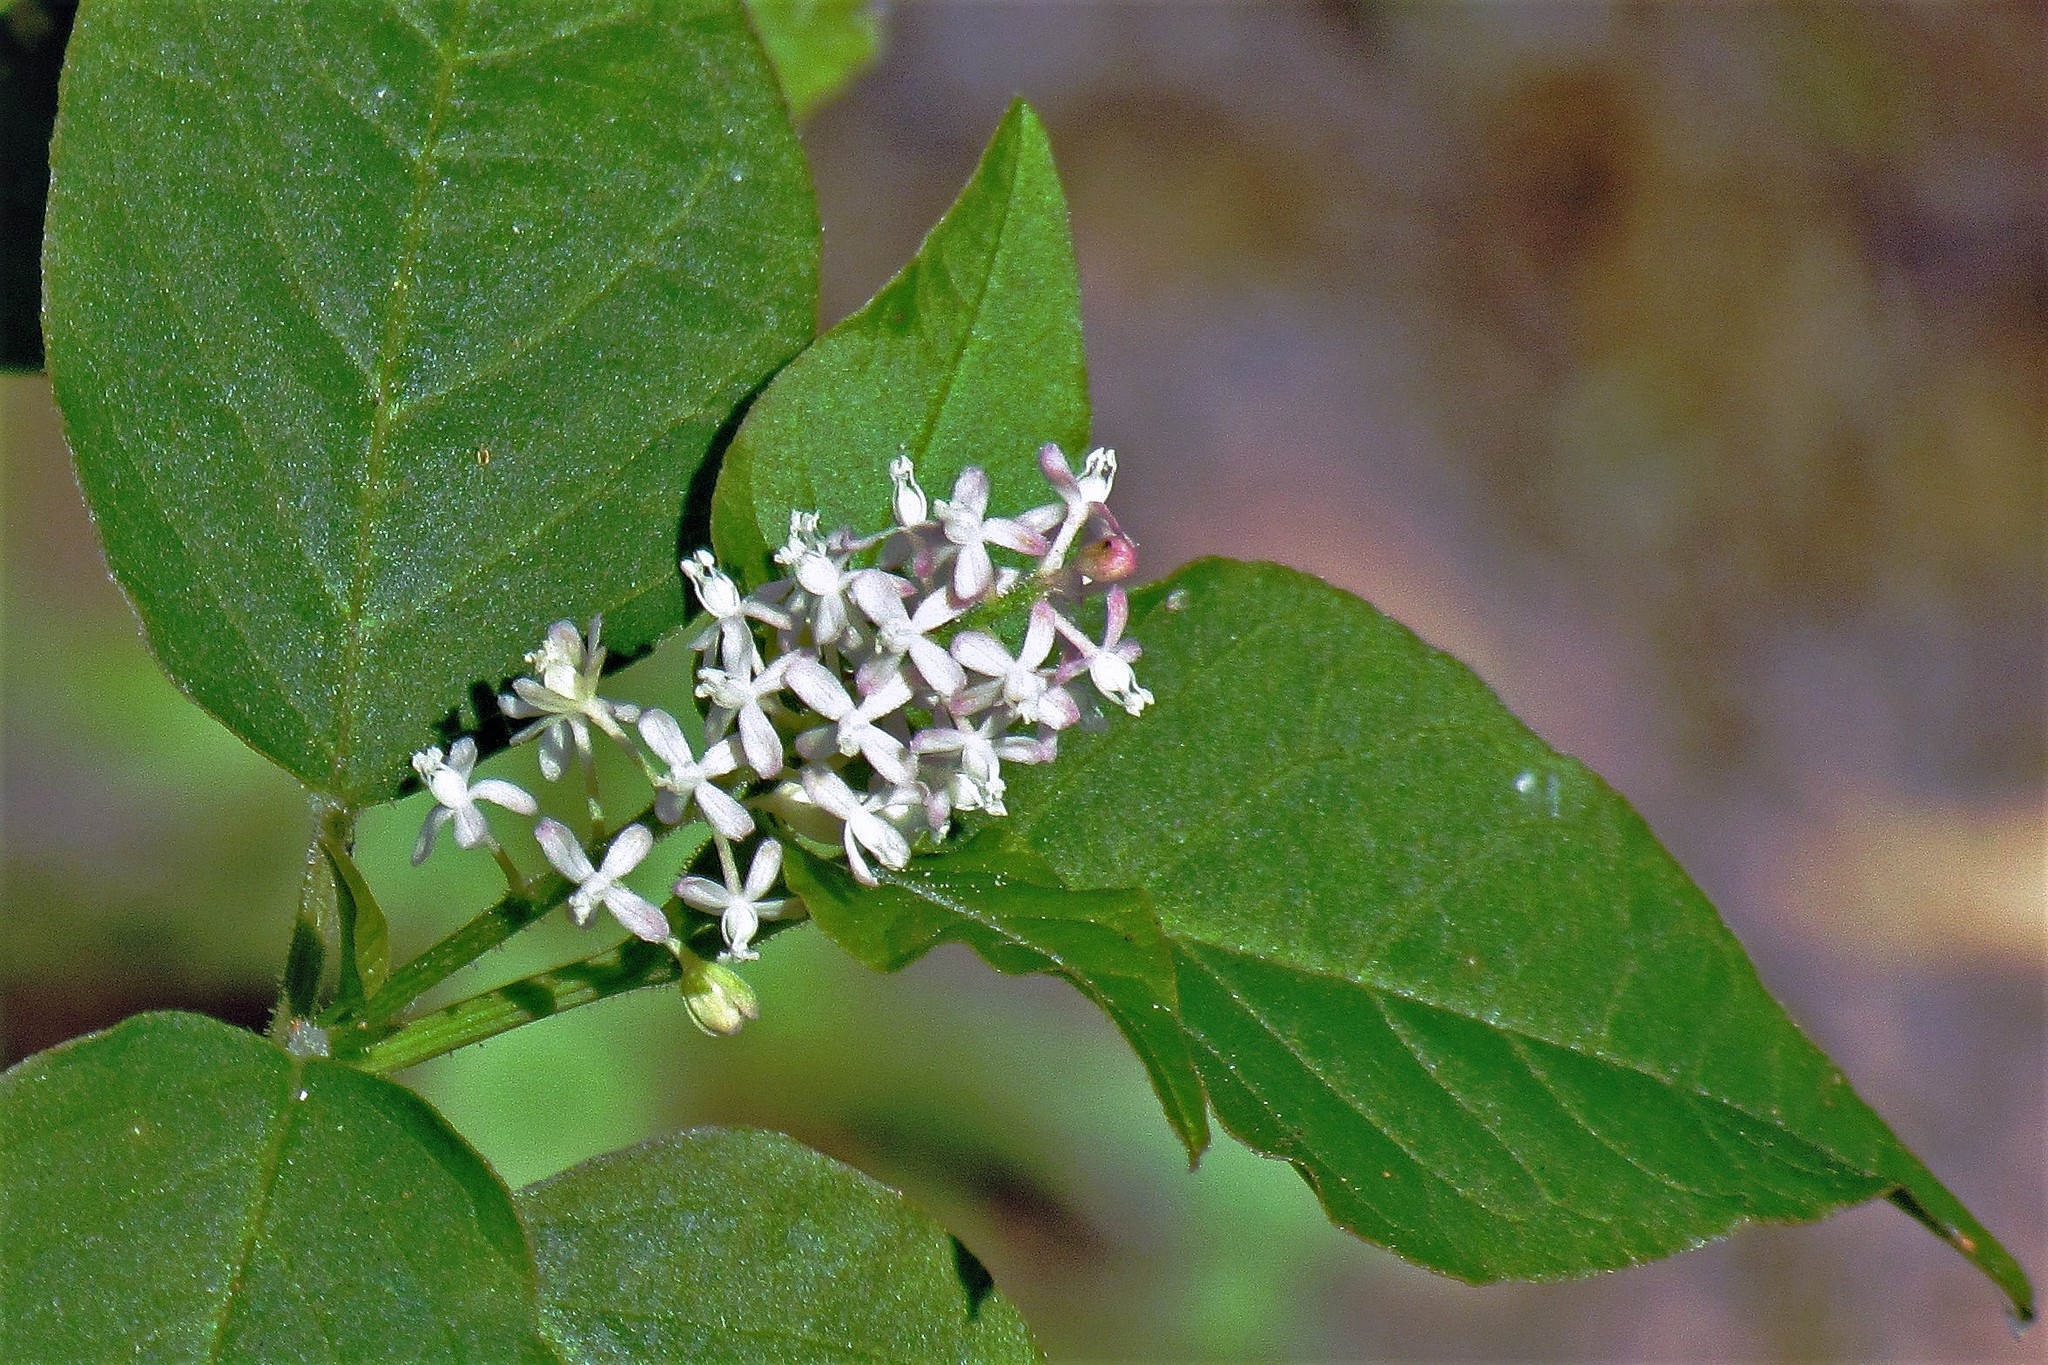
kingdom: Plantae
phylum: Tracheophyta
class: Magnoliopsida
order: Caryophyllales
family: Phytolaccaceae
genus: Rivina
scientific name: Rivina humilis
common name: Rougeplant
